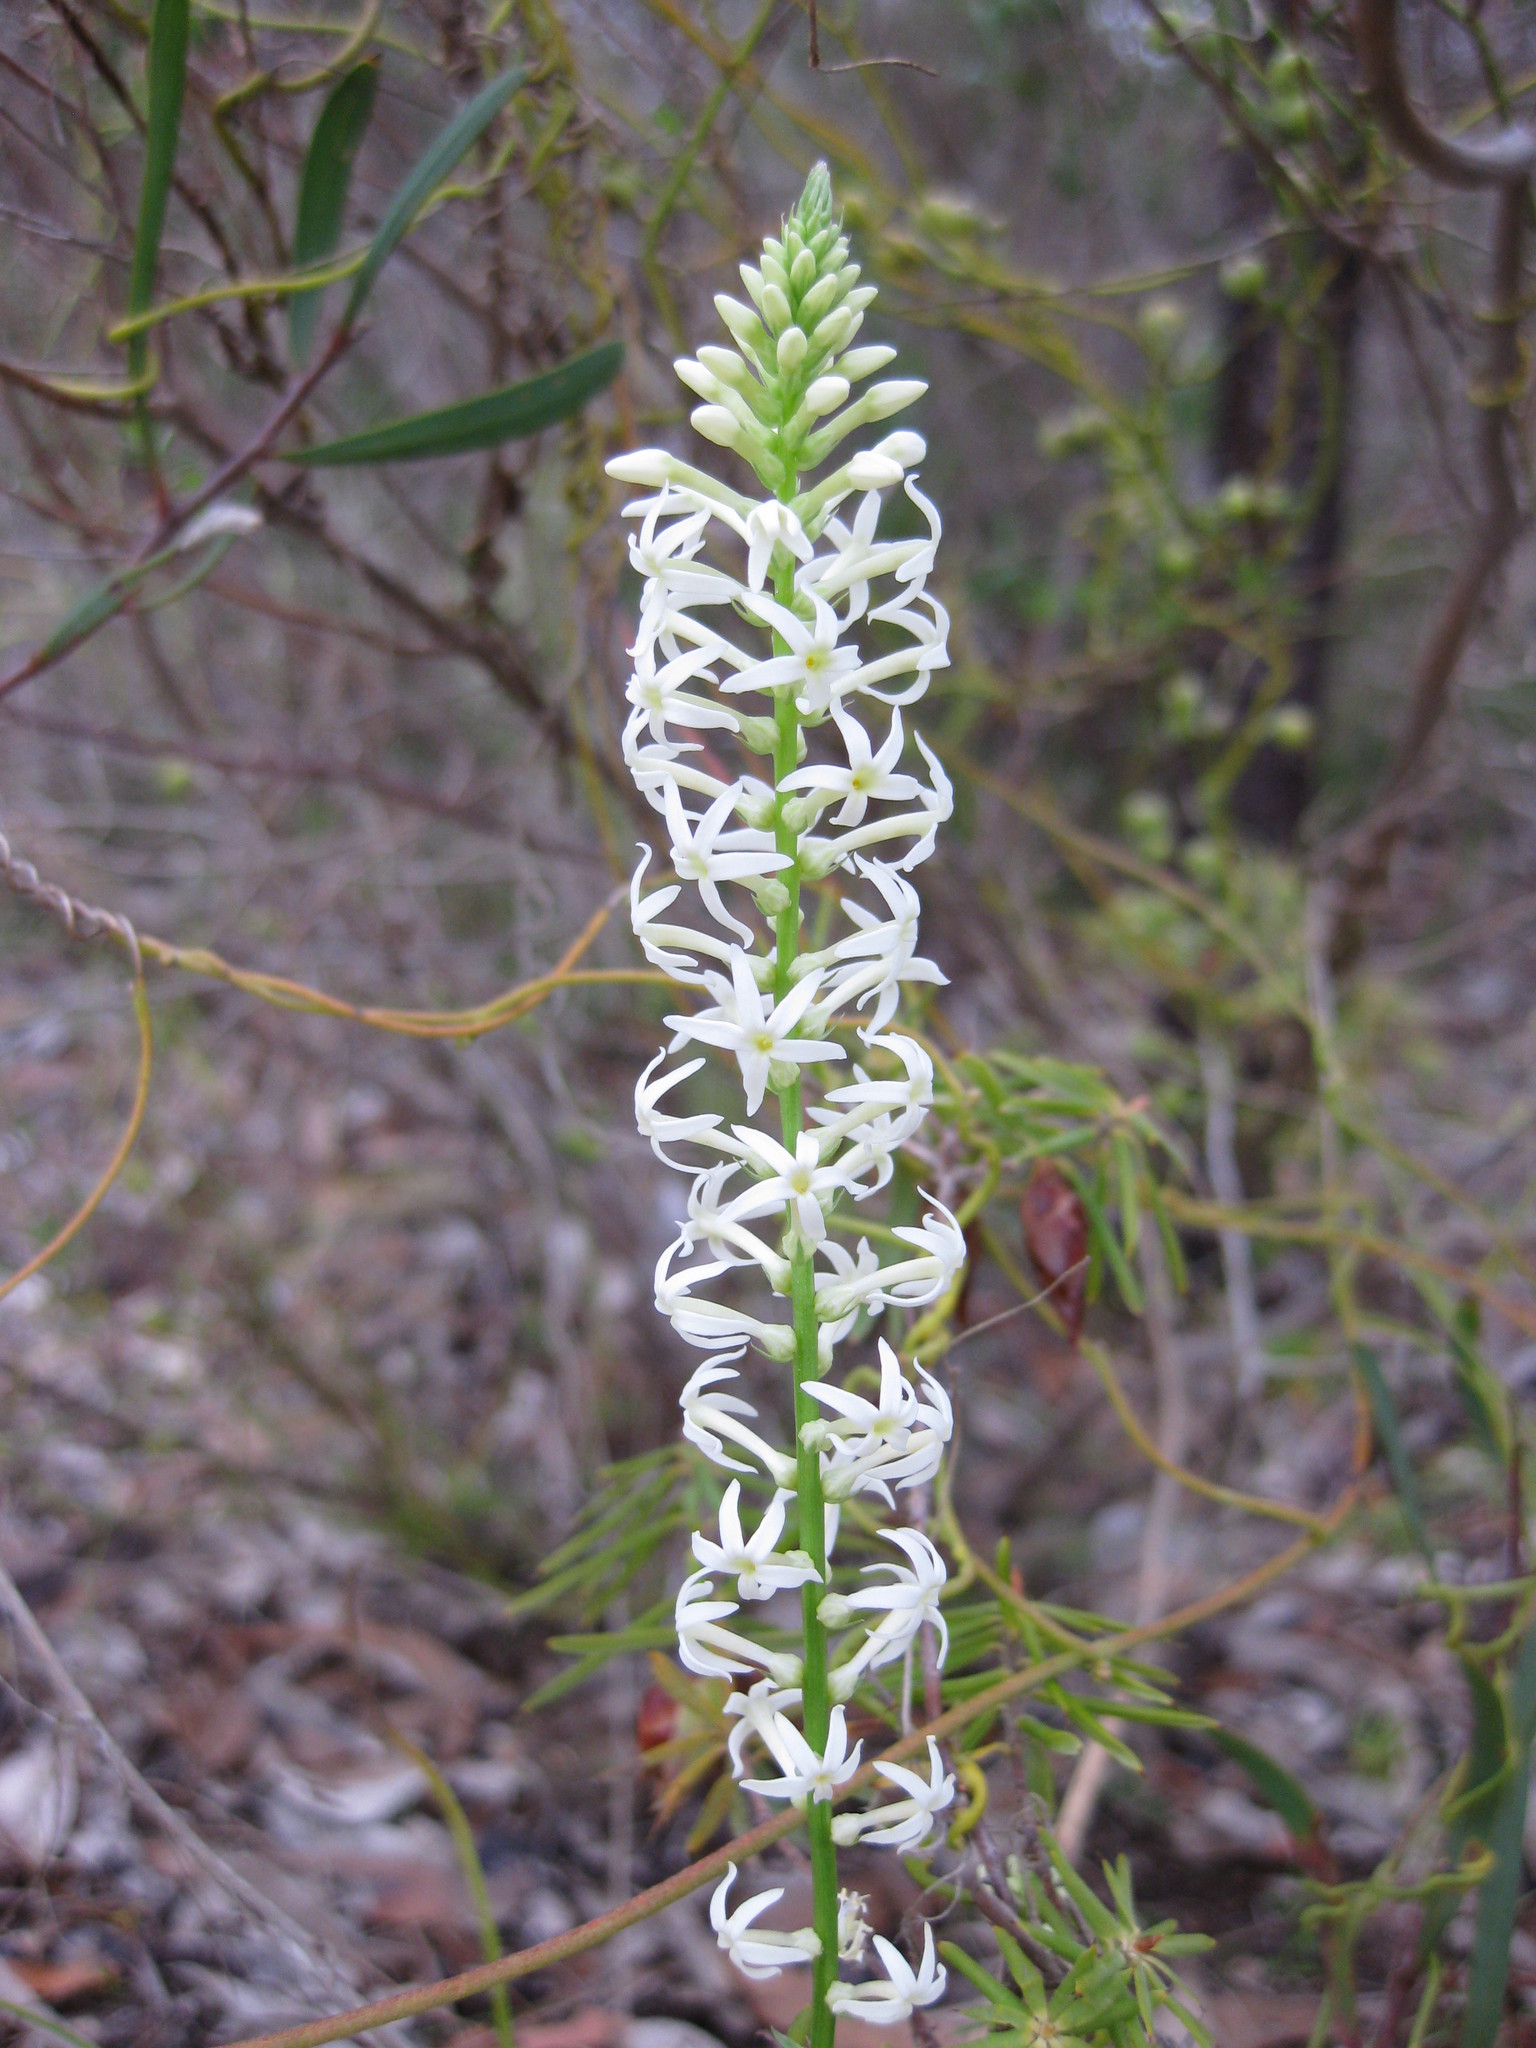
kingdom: Plantae
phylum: Tracheophyta
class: Magnoliopsida
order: Celastrales
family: Celastraceae
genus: Stackhousia
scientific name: Stackhousia monogyna
